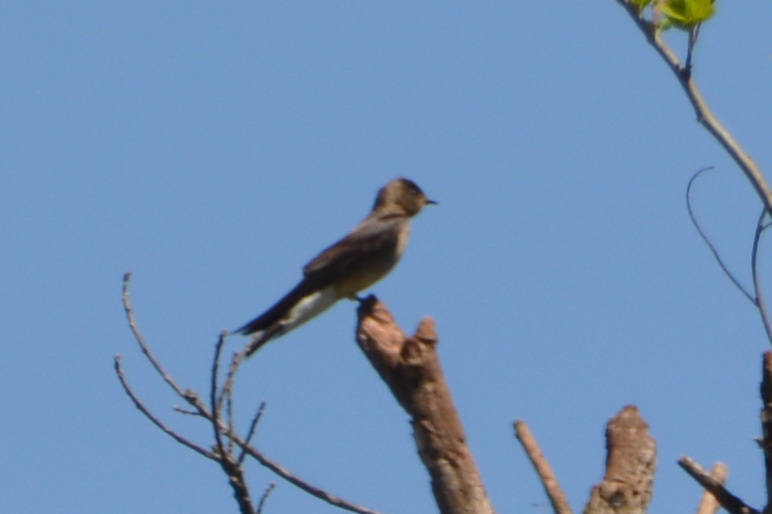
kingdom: Animalia
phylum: Chordata
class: Aves
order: Passeriformes
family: Hirundinidae
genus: Stelgidopteryx
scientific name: Stelgidopteryx ruficollis
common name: Southern rough-winged swallow
